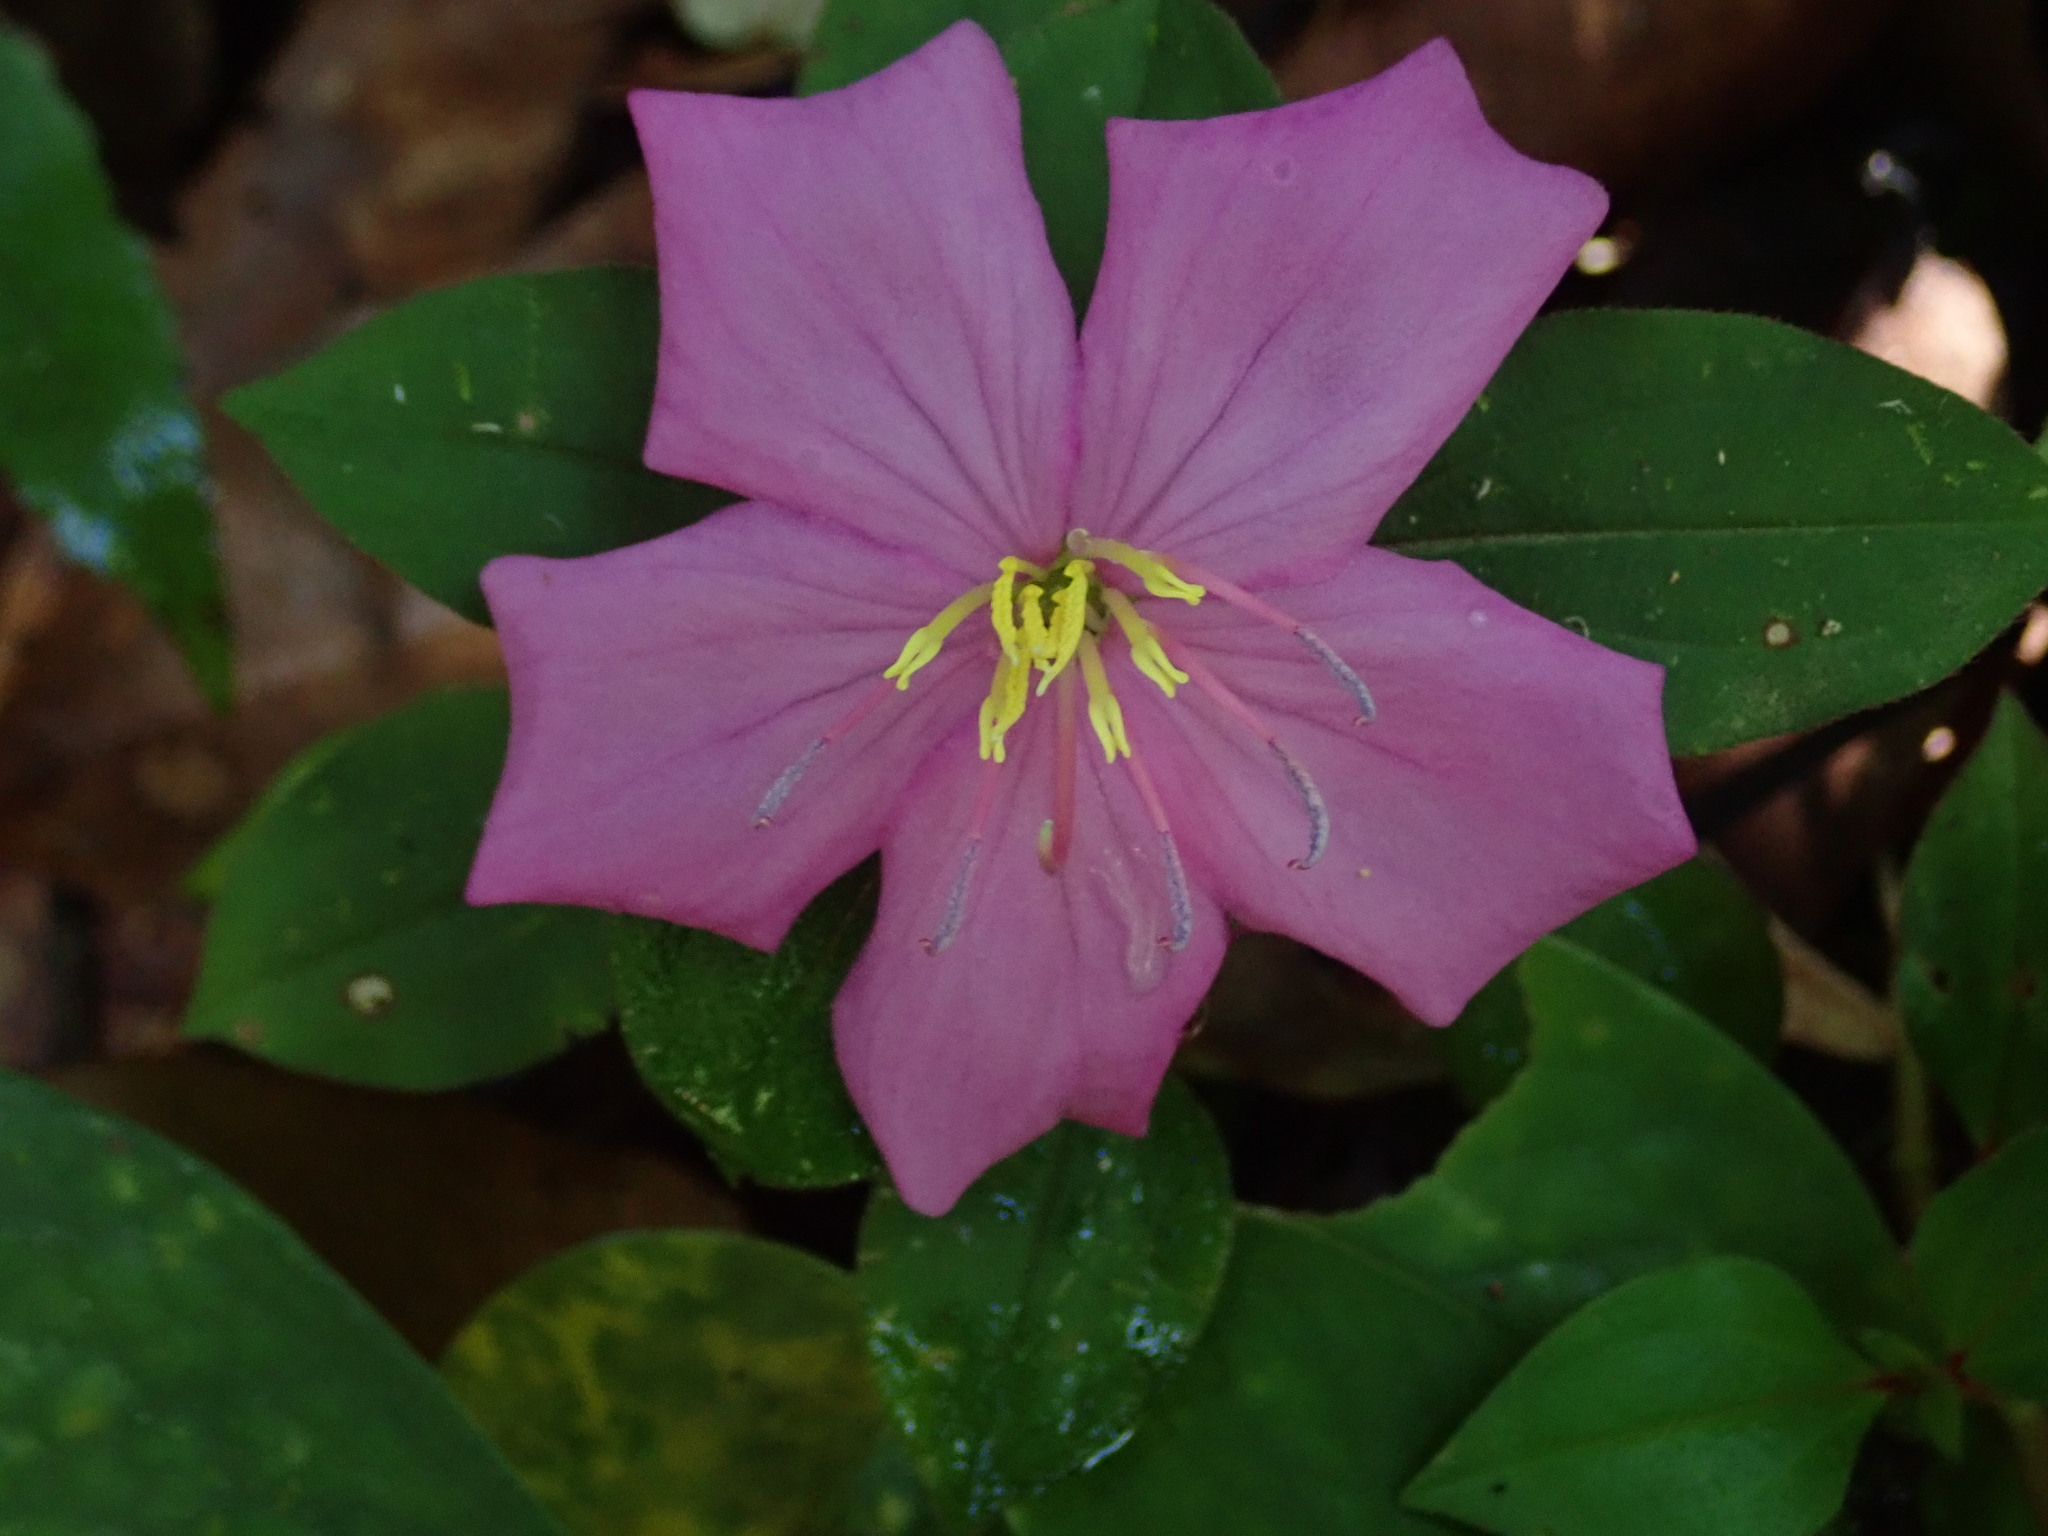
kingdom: Plantae
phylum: Tracheophyta
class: Magnoliopsida
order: Myrtales
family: Melastomataceae
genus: Heterotis
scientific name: Heterotis rotundifolia
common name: Pinklady
